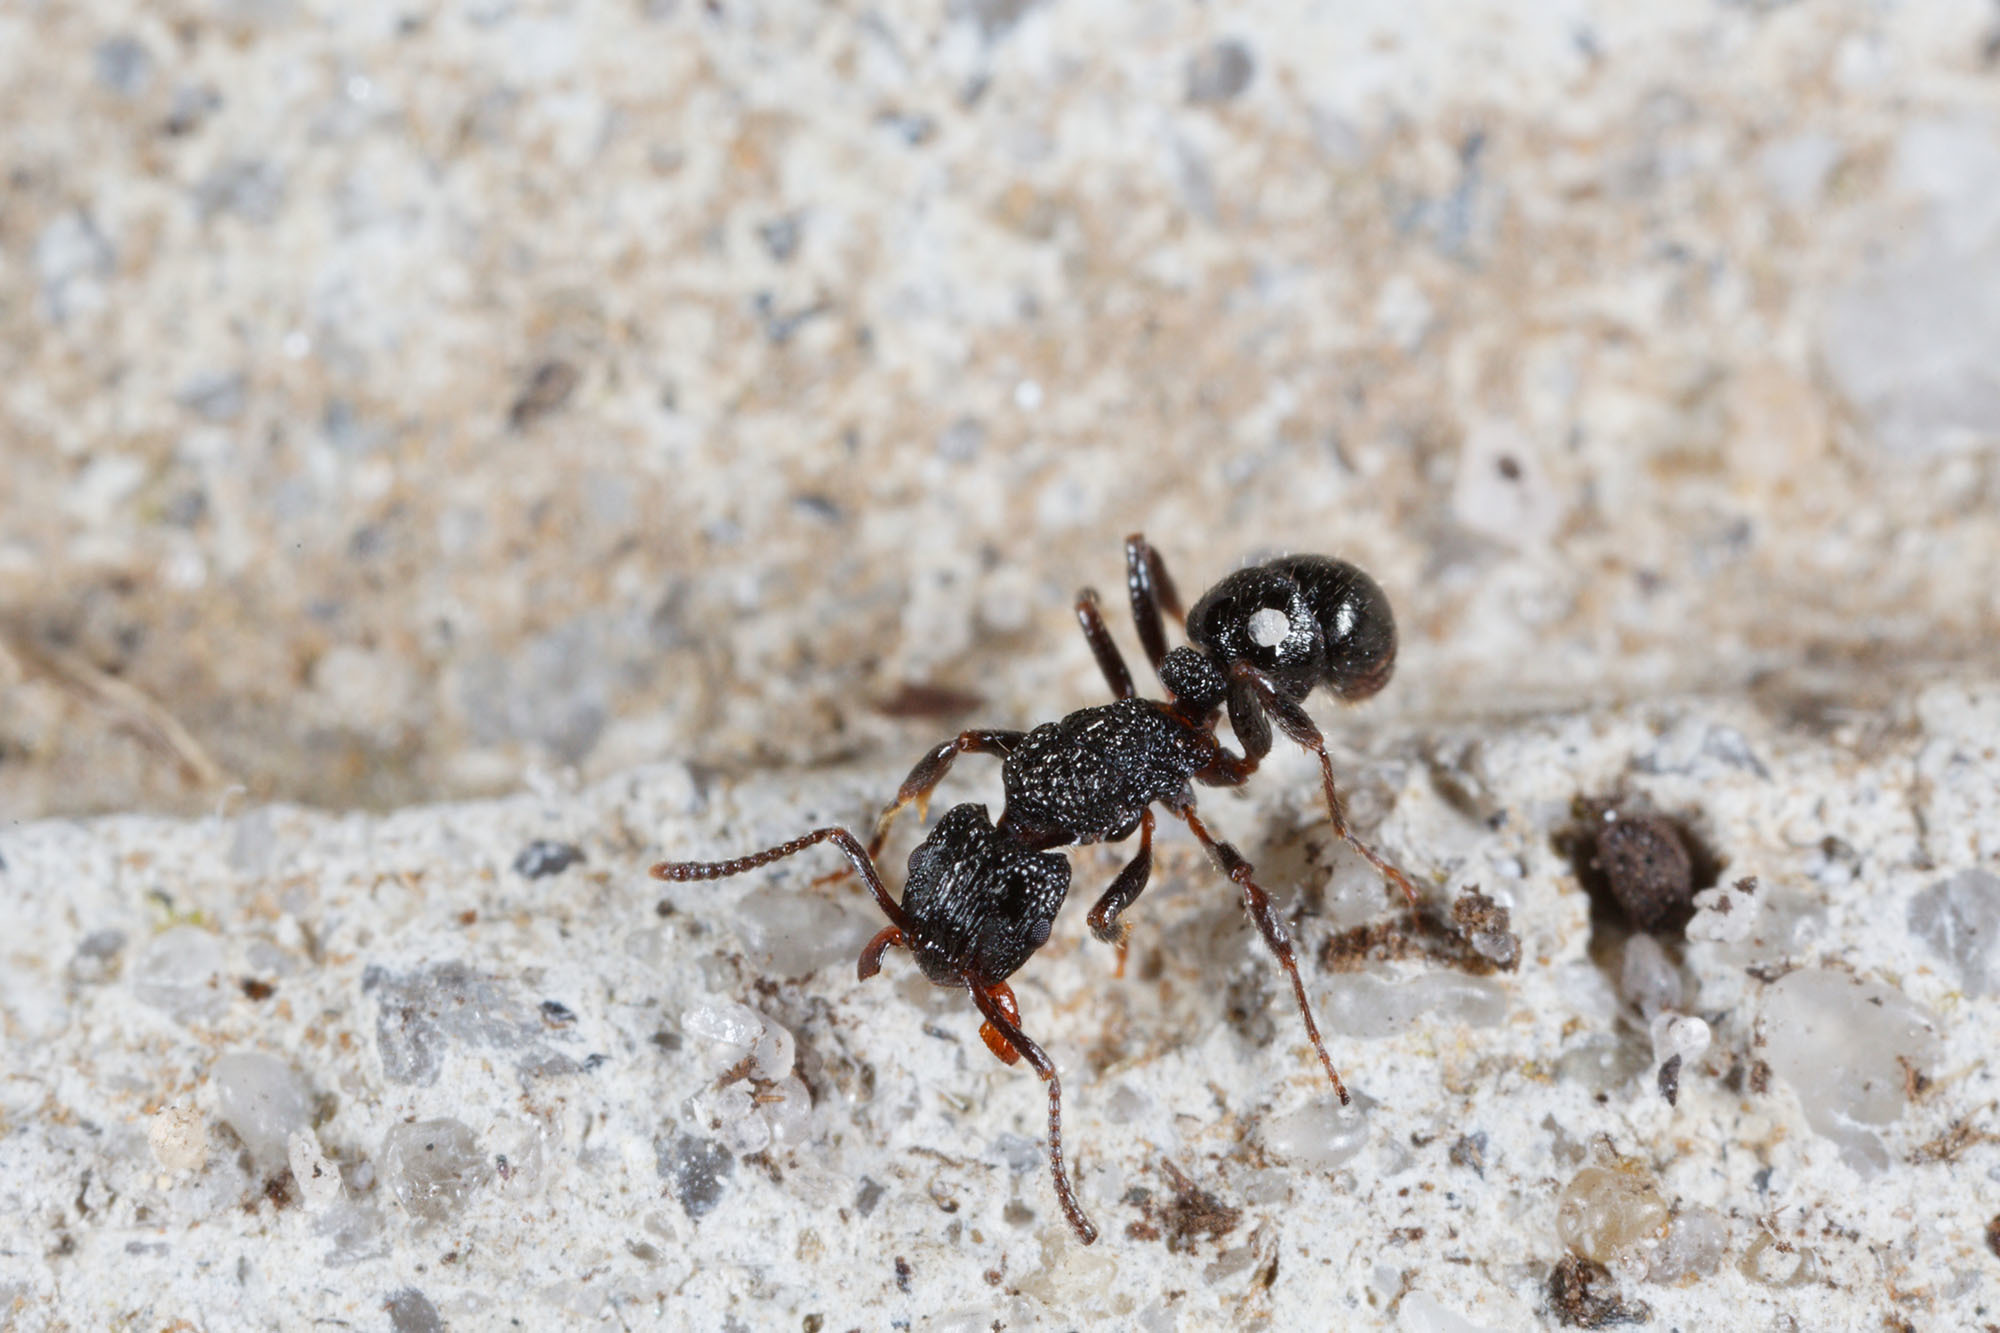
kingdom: Animalia
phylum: Arthropoda
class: Insecta
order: Hymenoptera
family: Formicidae
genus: Rhytidoponera
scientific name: Rhytidoponera victoriae
